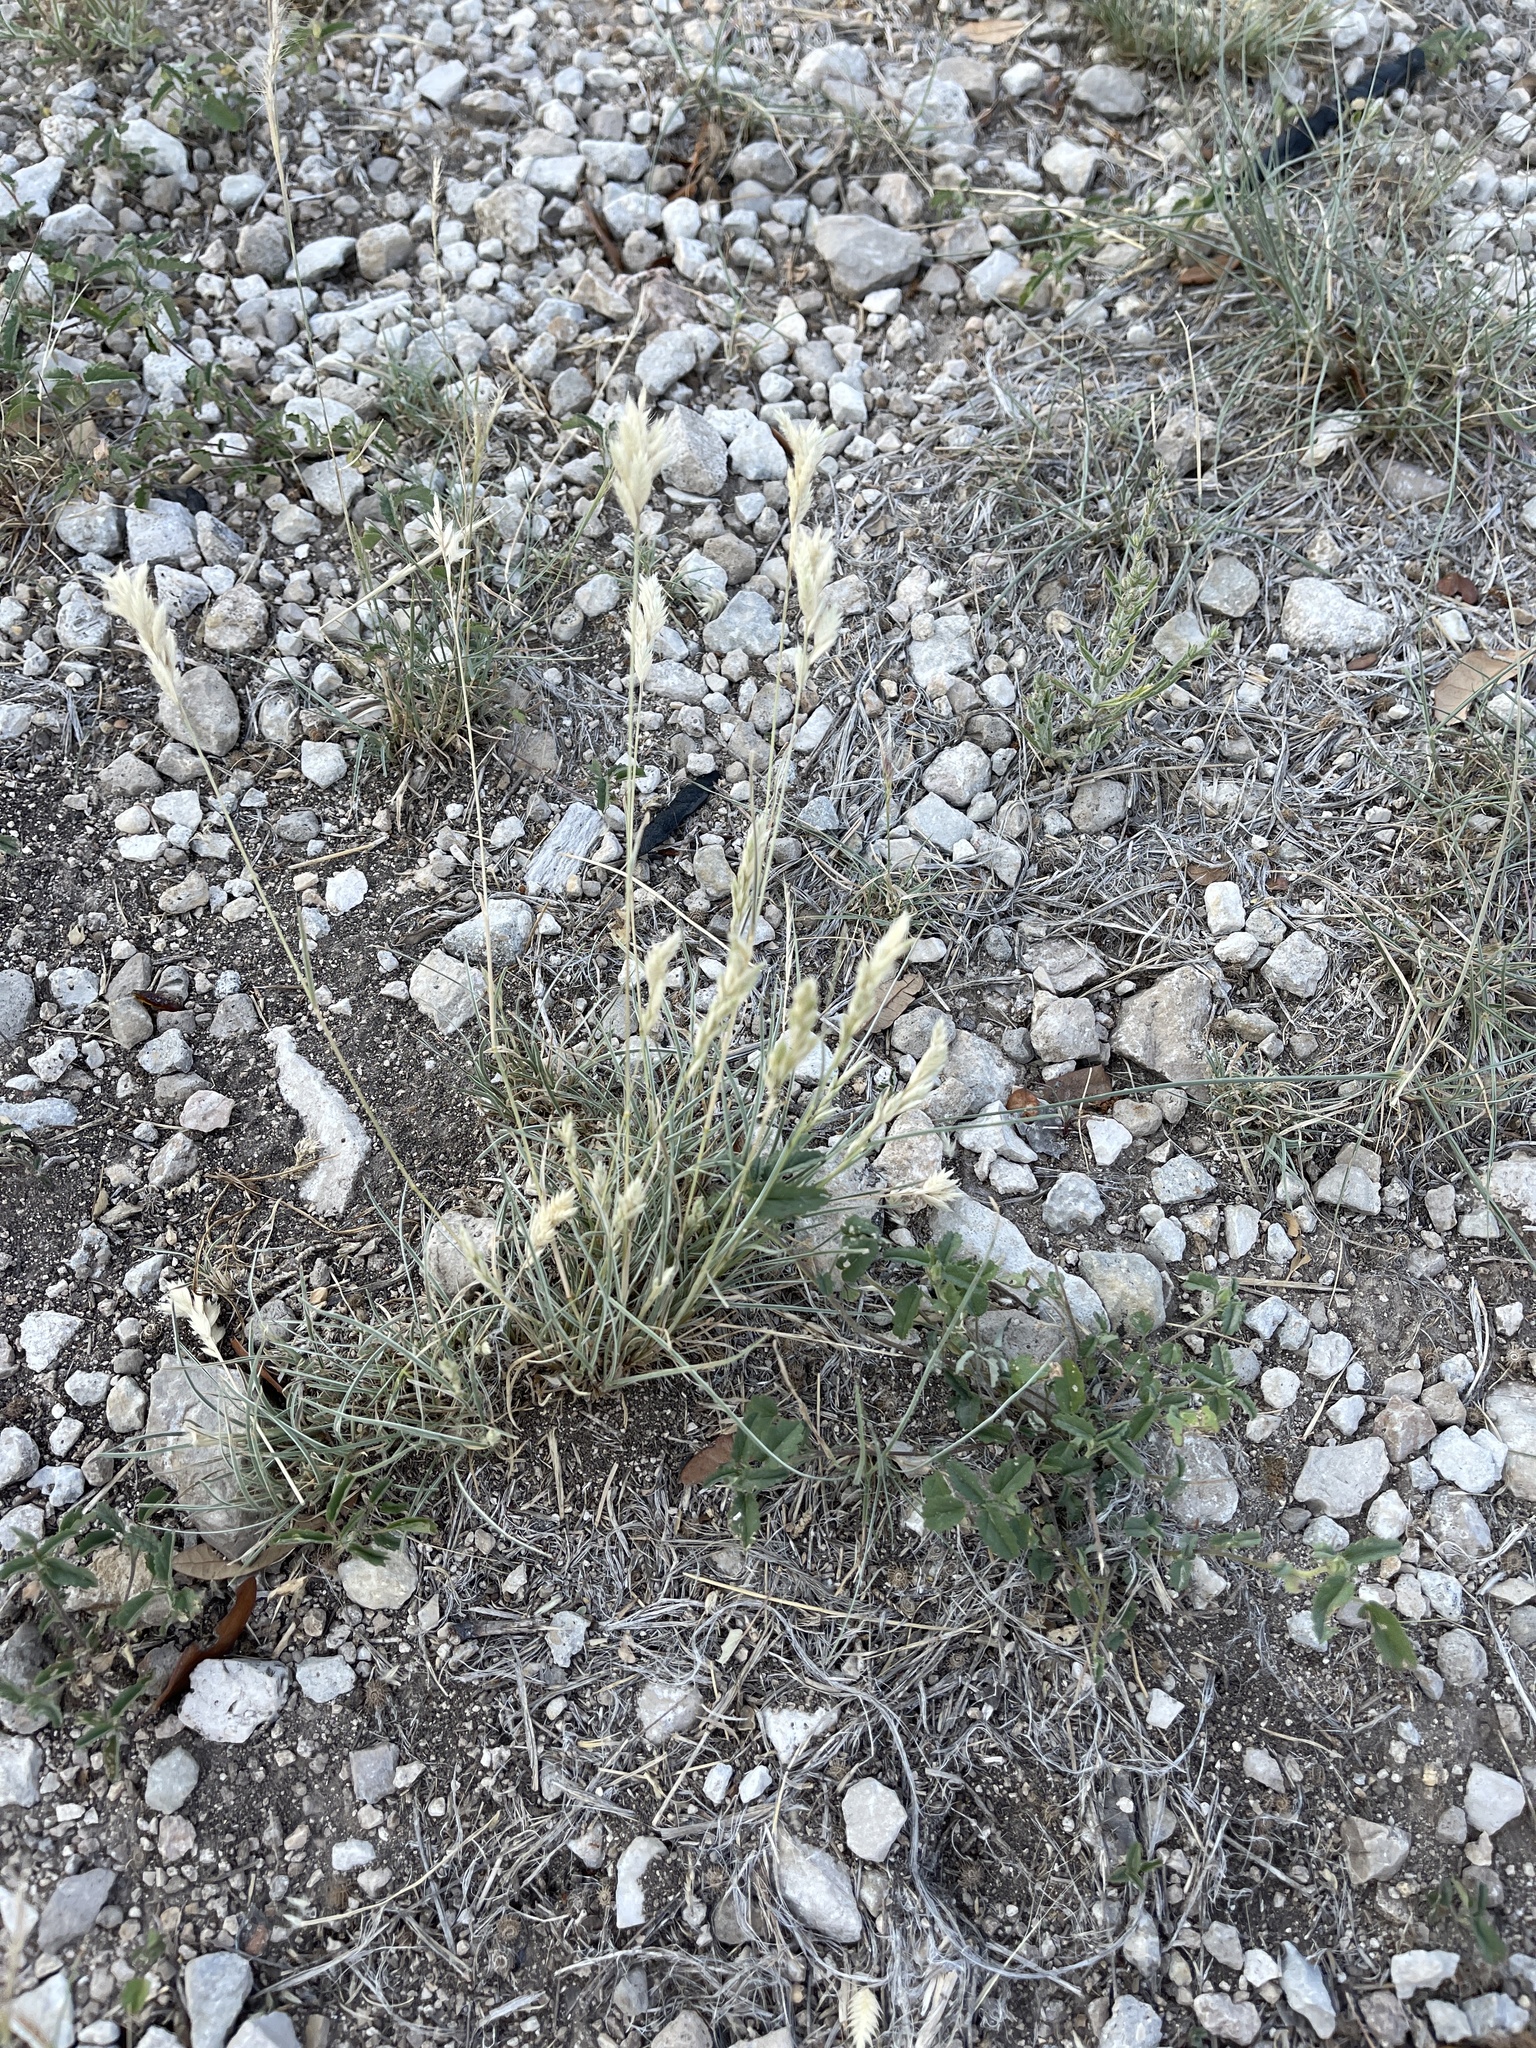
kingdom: Plantae
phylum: Tracheophyta
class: Liliopsida
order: Poales
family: Poaceae
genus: Erioneuron
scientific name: Erioneuron pilosum
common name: Hairy woolly grass
